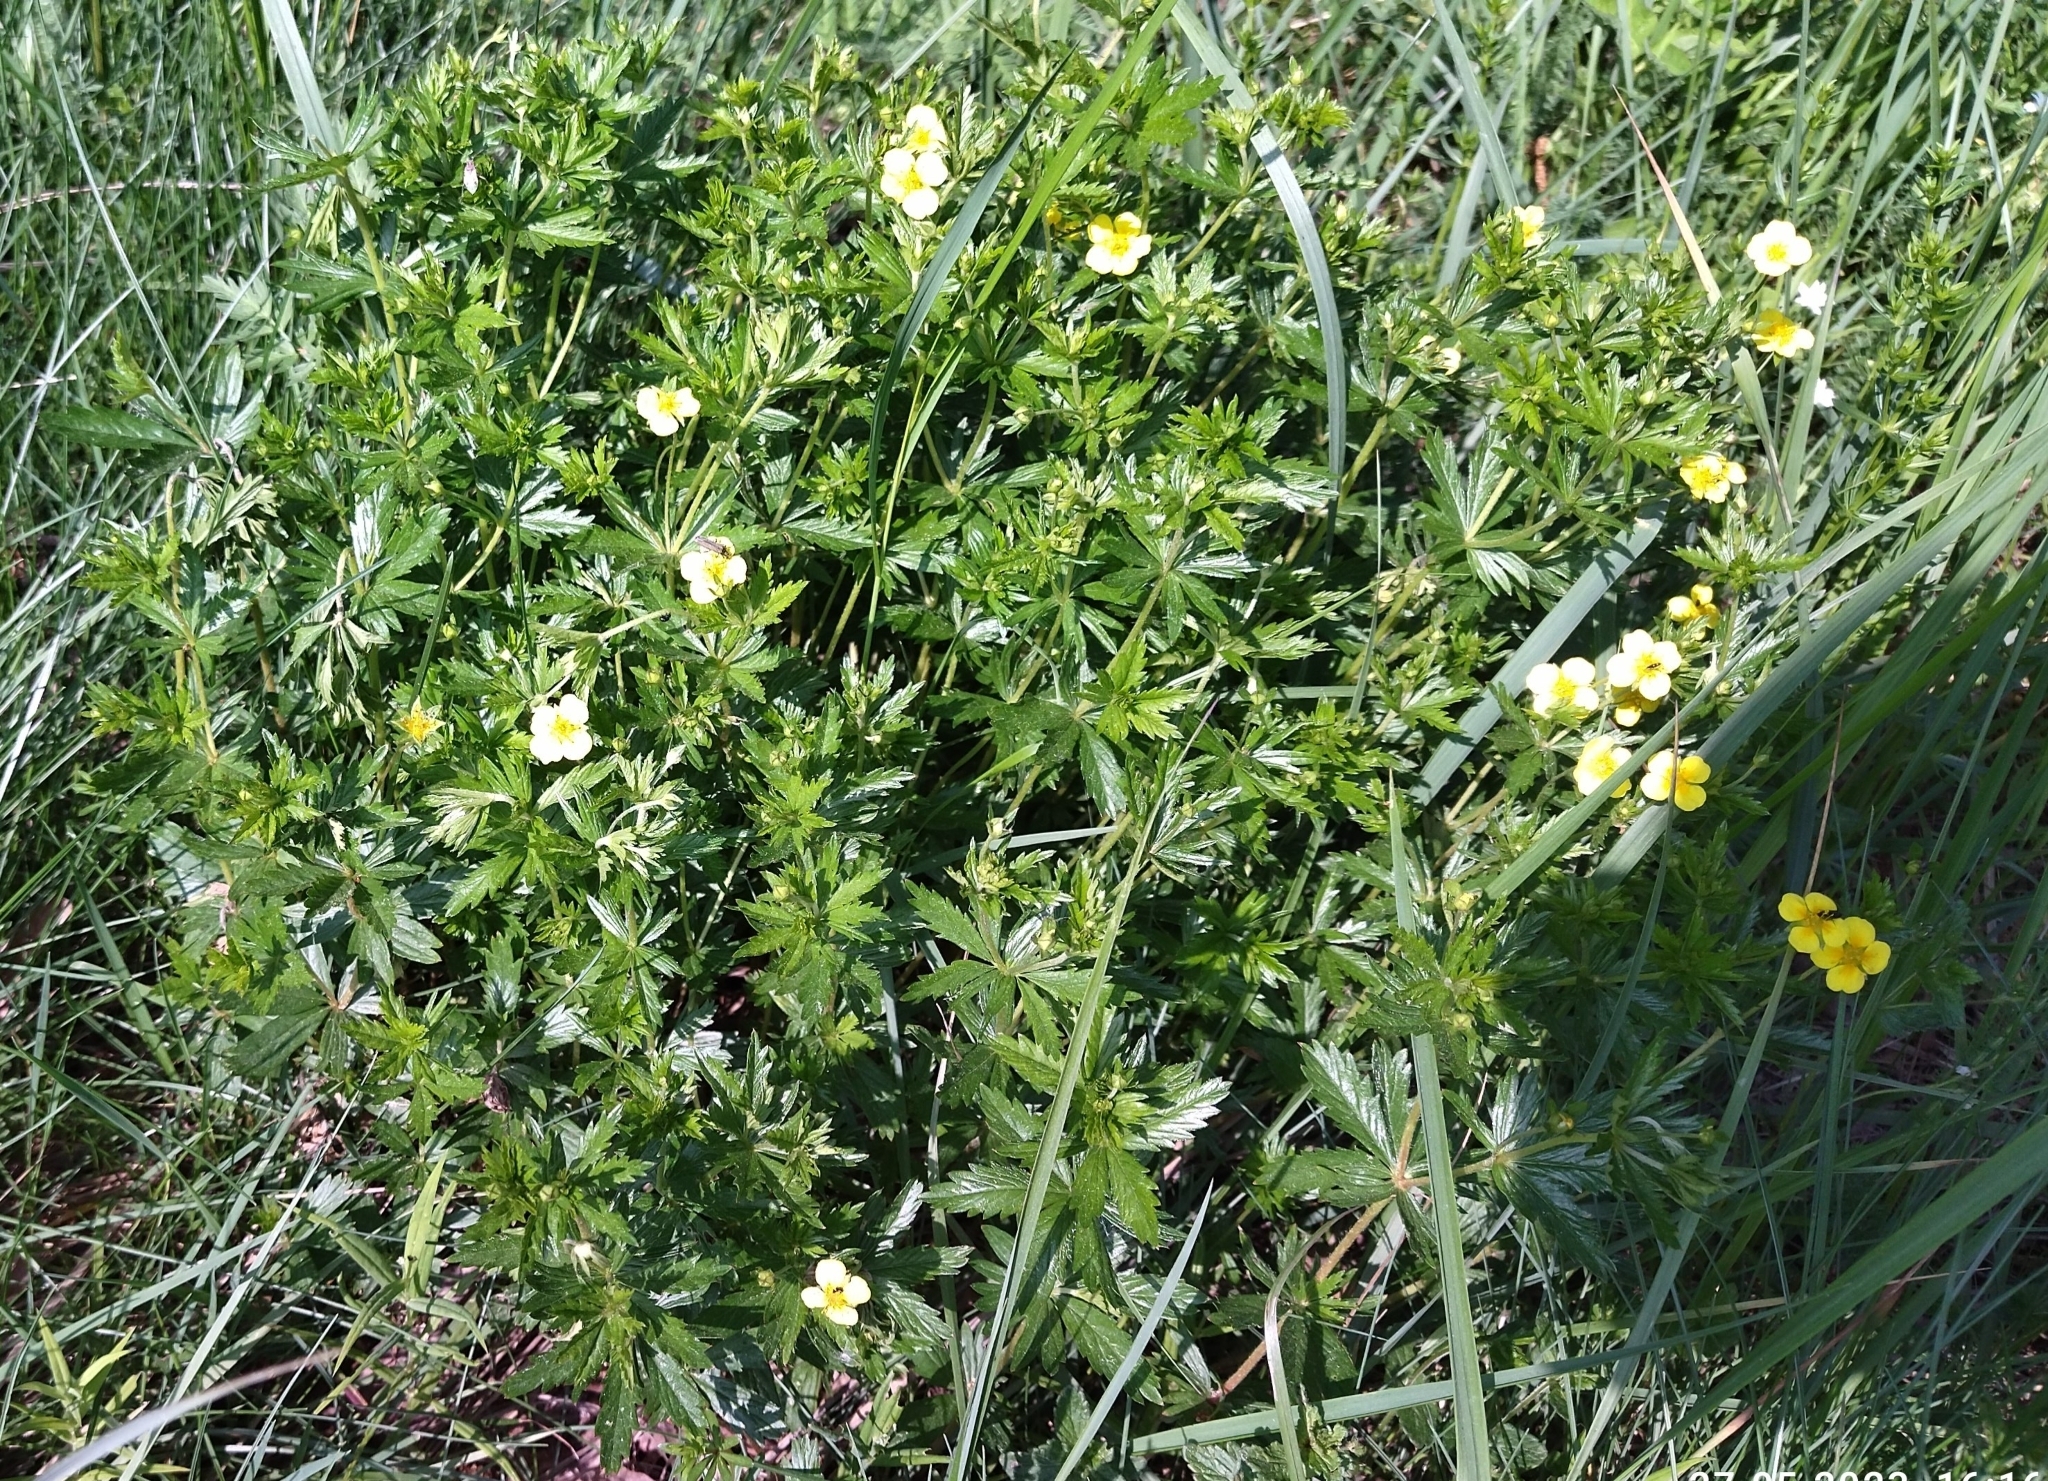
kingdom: Plantae
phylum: Tracheophyta
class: Magnoliopsida
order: Rosales
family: Rosaceae
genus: Potentilla
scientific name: Potentilla erecta
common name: Tormentil
